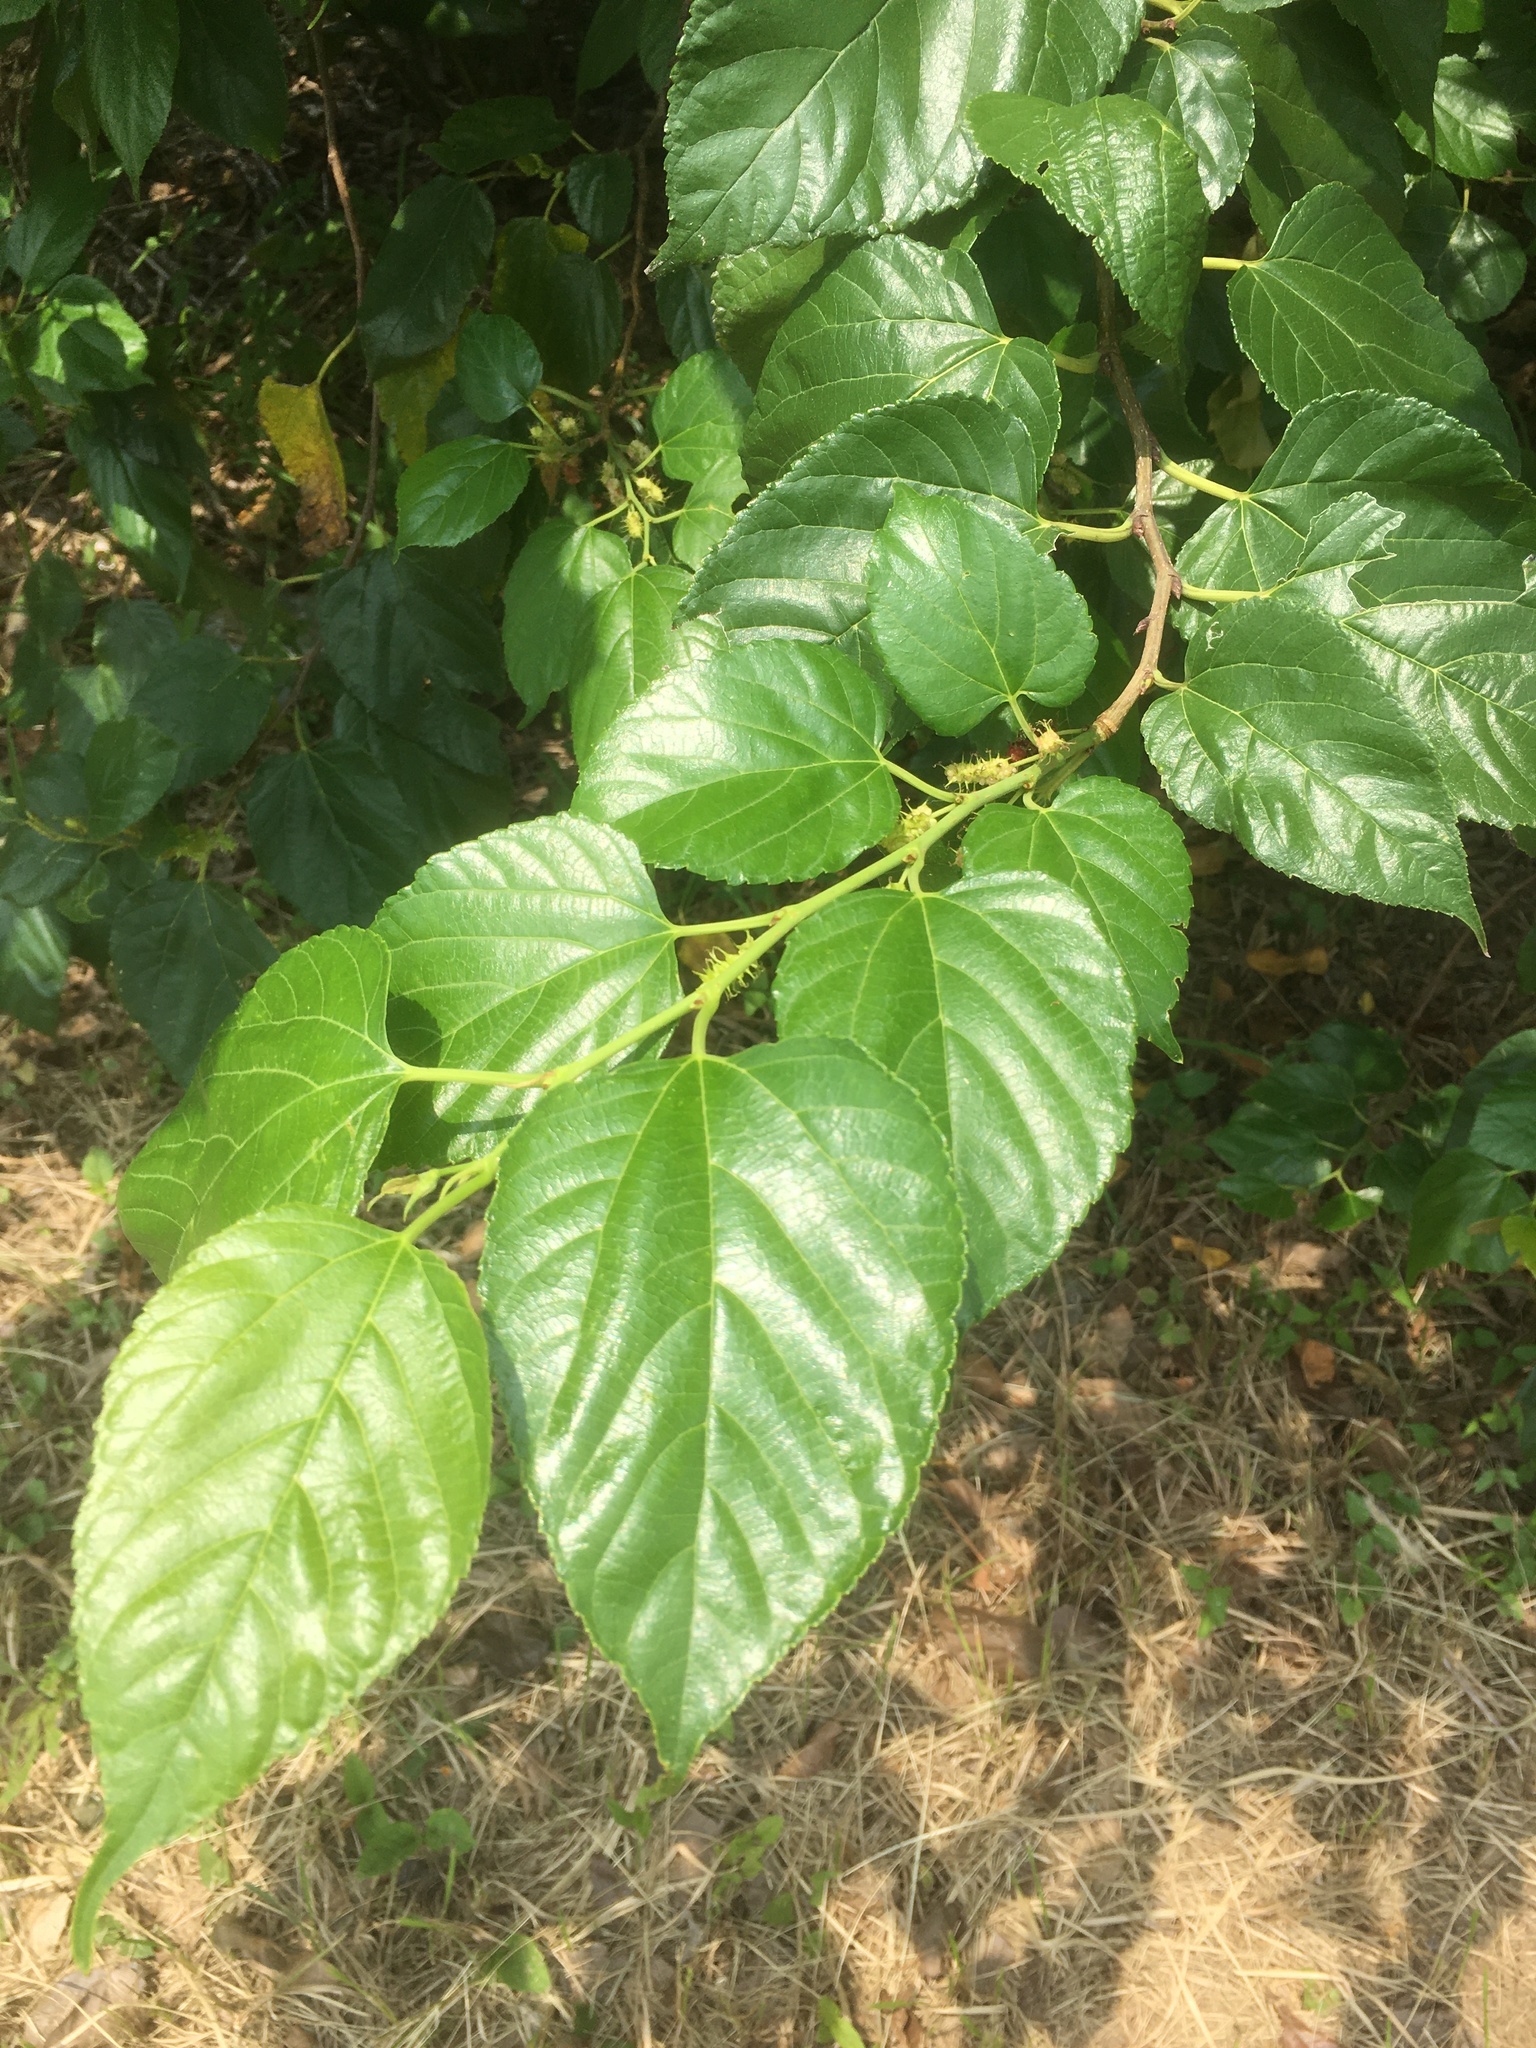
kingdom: Plantae
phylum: Tracheophyta
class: Magnoliopsida
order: Rosales
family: Moraceae
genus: Morus
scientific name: Morus indica
